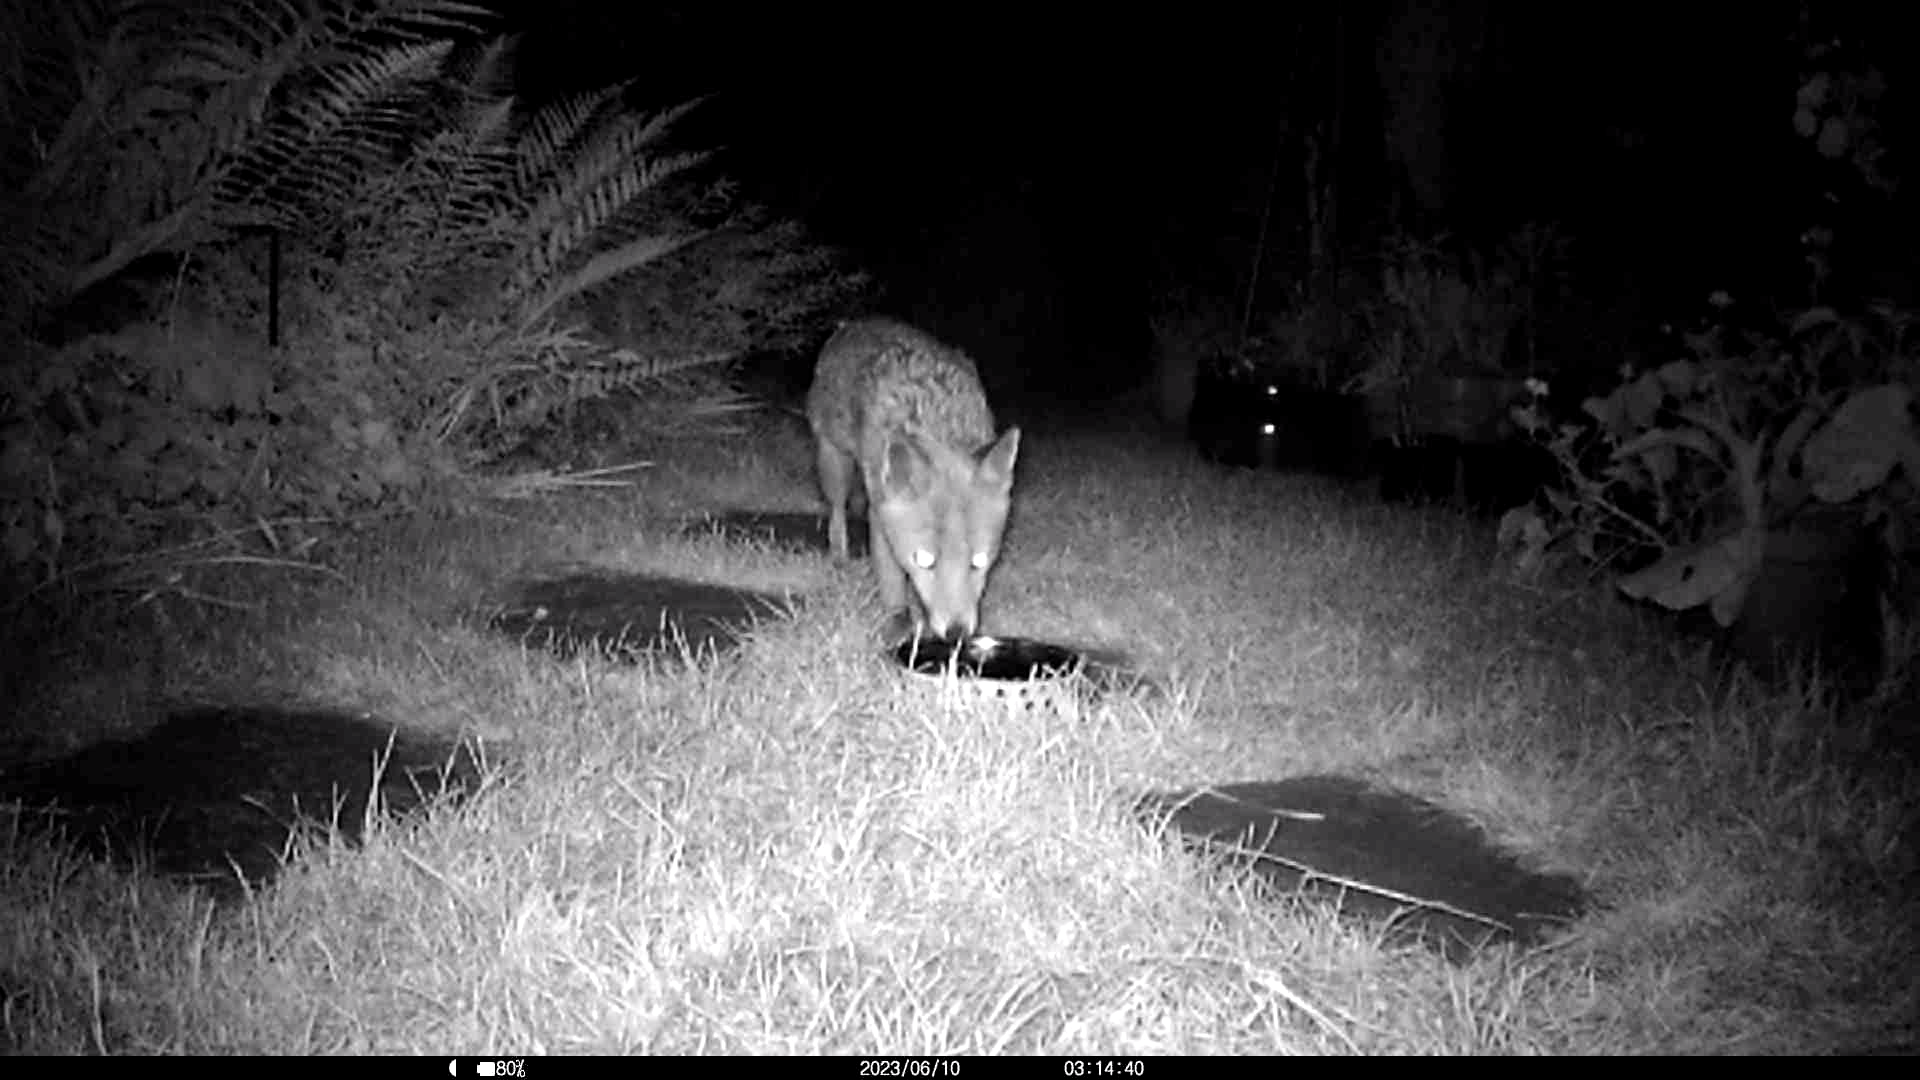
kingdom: Animalia
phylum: Chordata
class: Mammalia
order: Carnivora
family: Canidae
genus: Vulpes
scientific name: Vulpes vulpes
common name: Red fox
